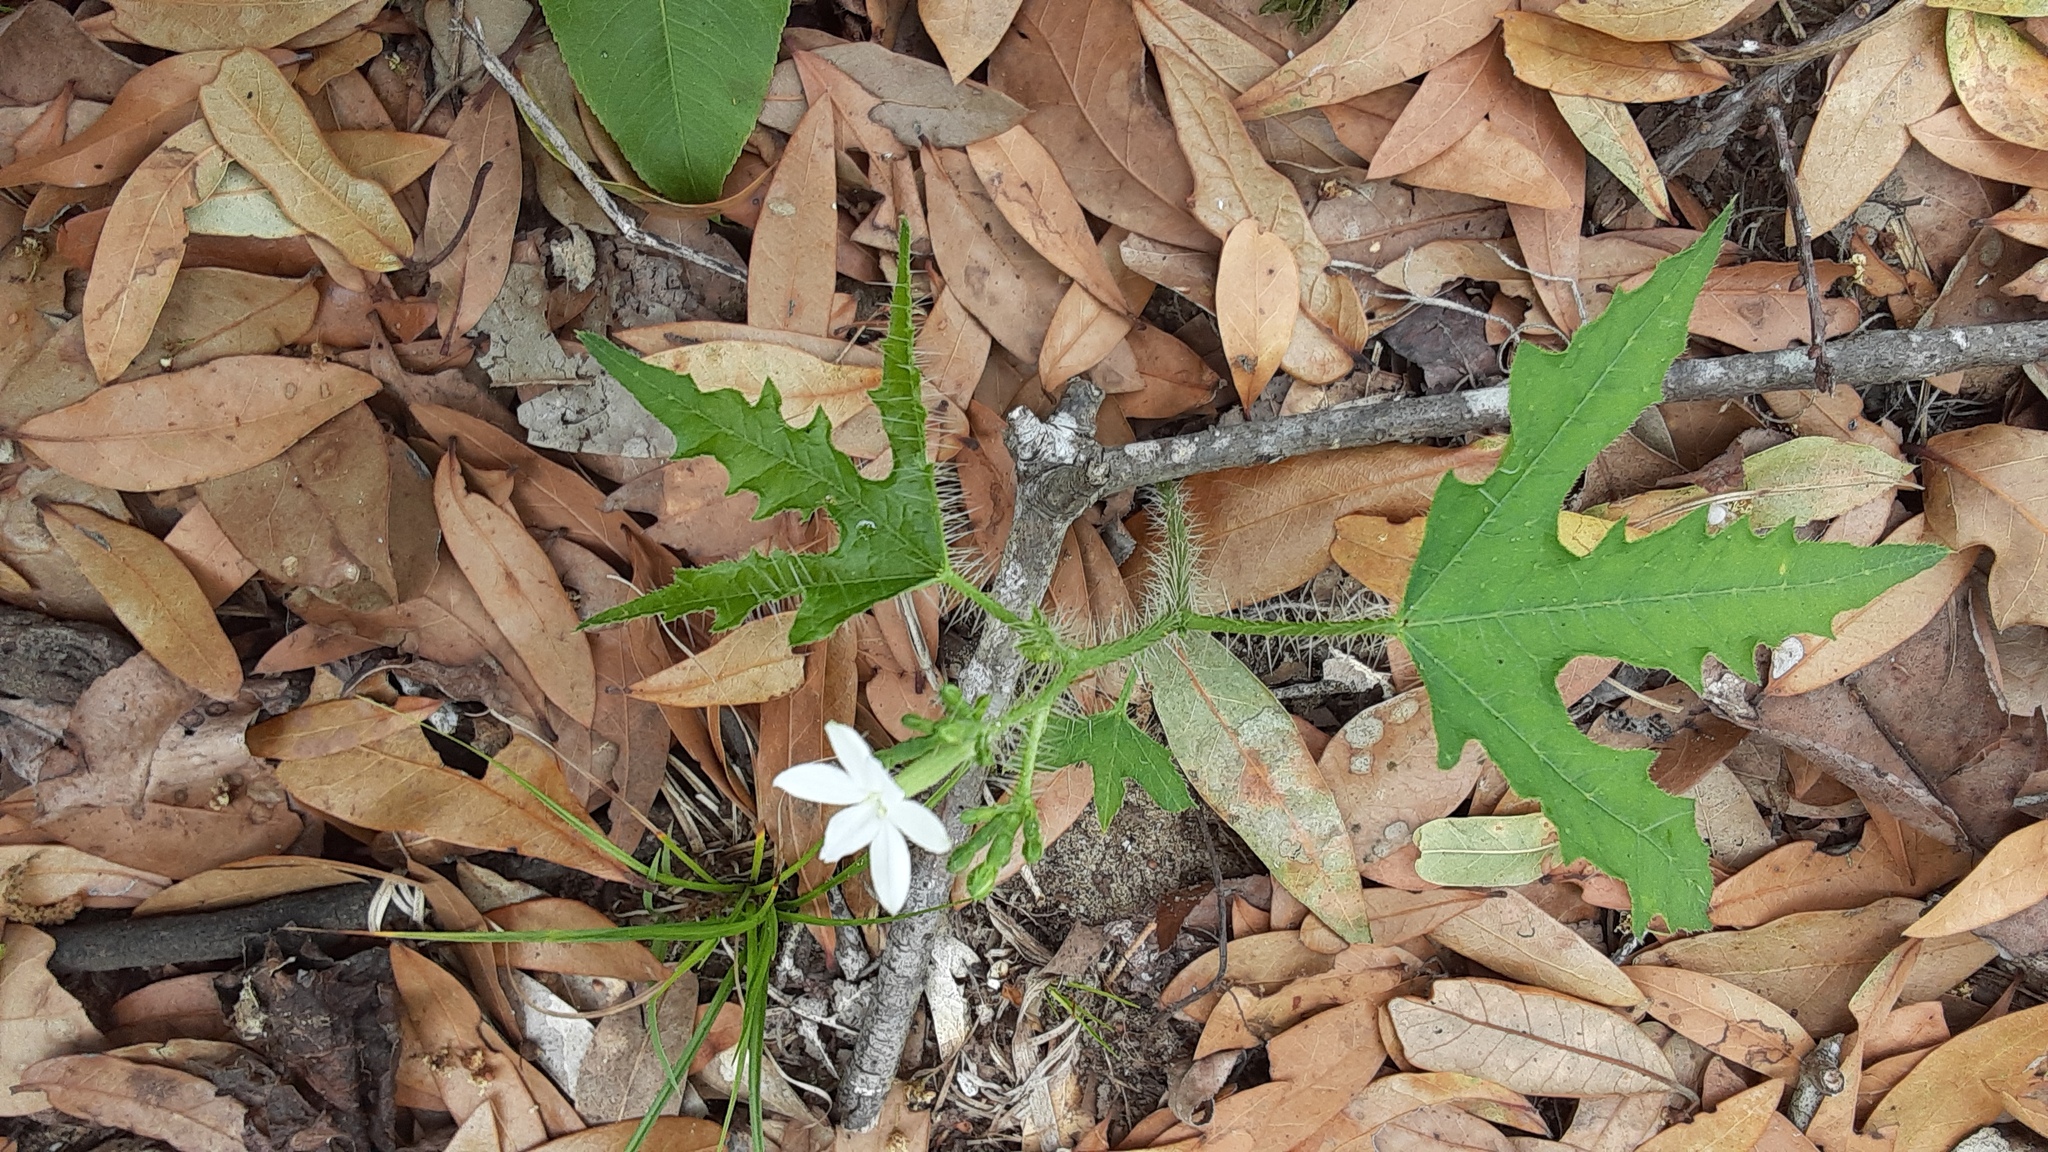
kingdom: Plantae
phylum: Tracheophyta
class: Magnoliopsida
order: Malpighiales
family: Euphorbiaceae
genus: Cnidoscolus
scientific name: Cnidoscolus stimulosus
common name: Bull-nettle
